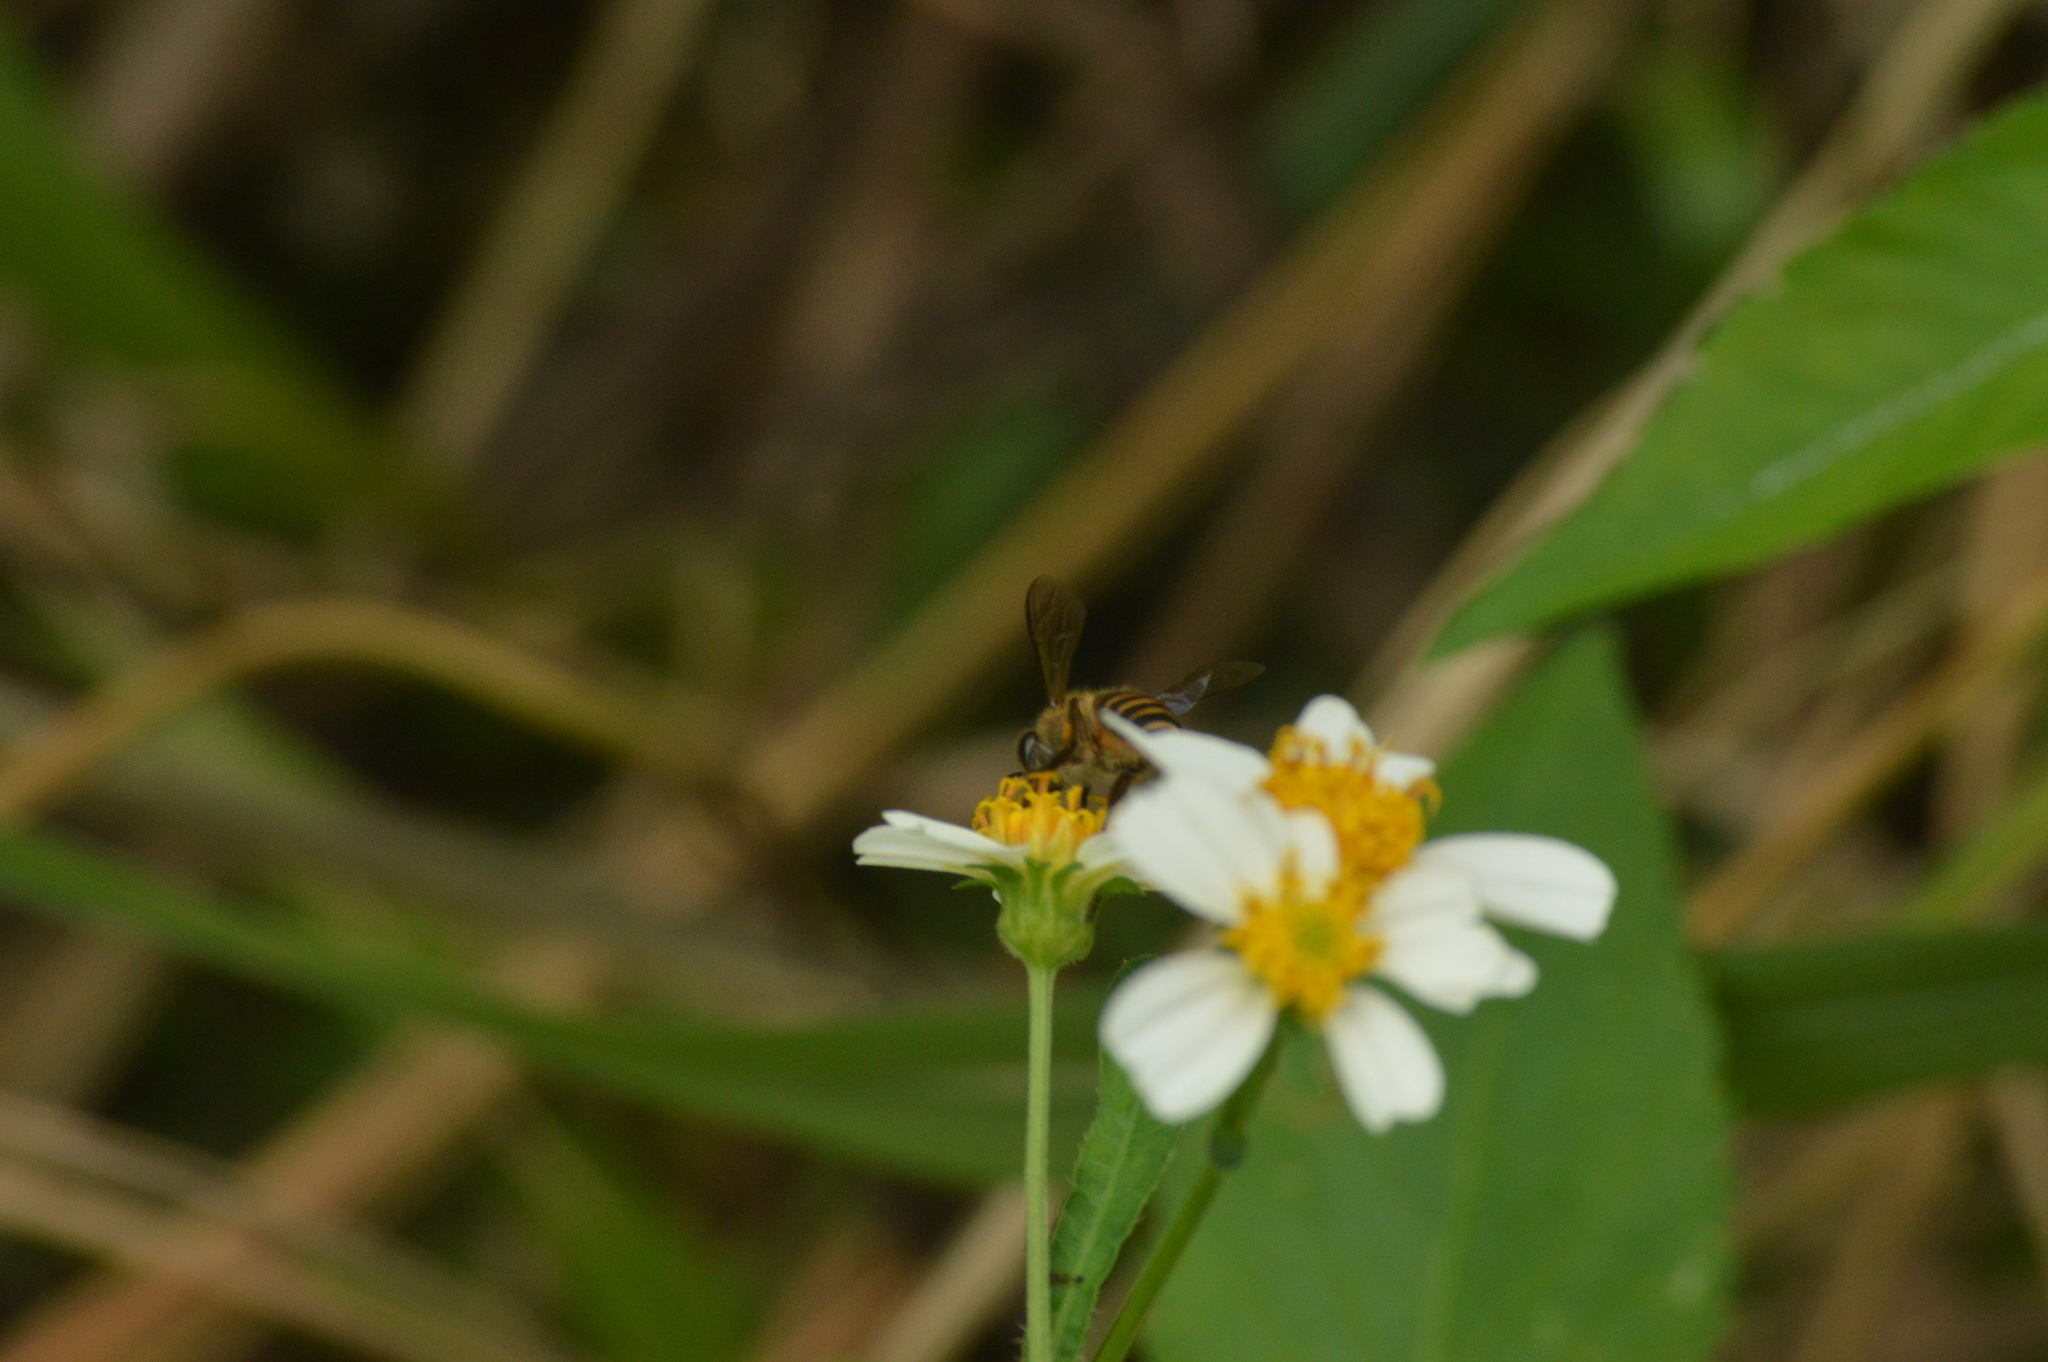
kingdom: Animalia
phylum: Arthropoda
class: Insecta
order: Hymenoptera
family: Apidae
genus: Apis
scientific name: Apis cerana
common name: Honey bee
